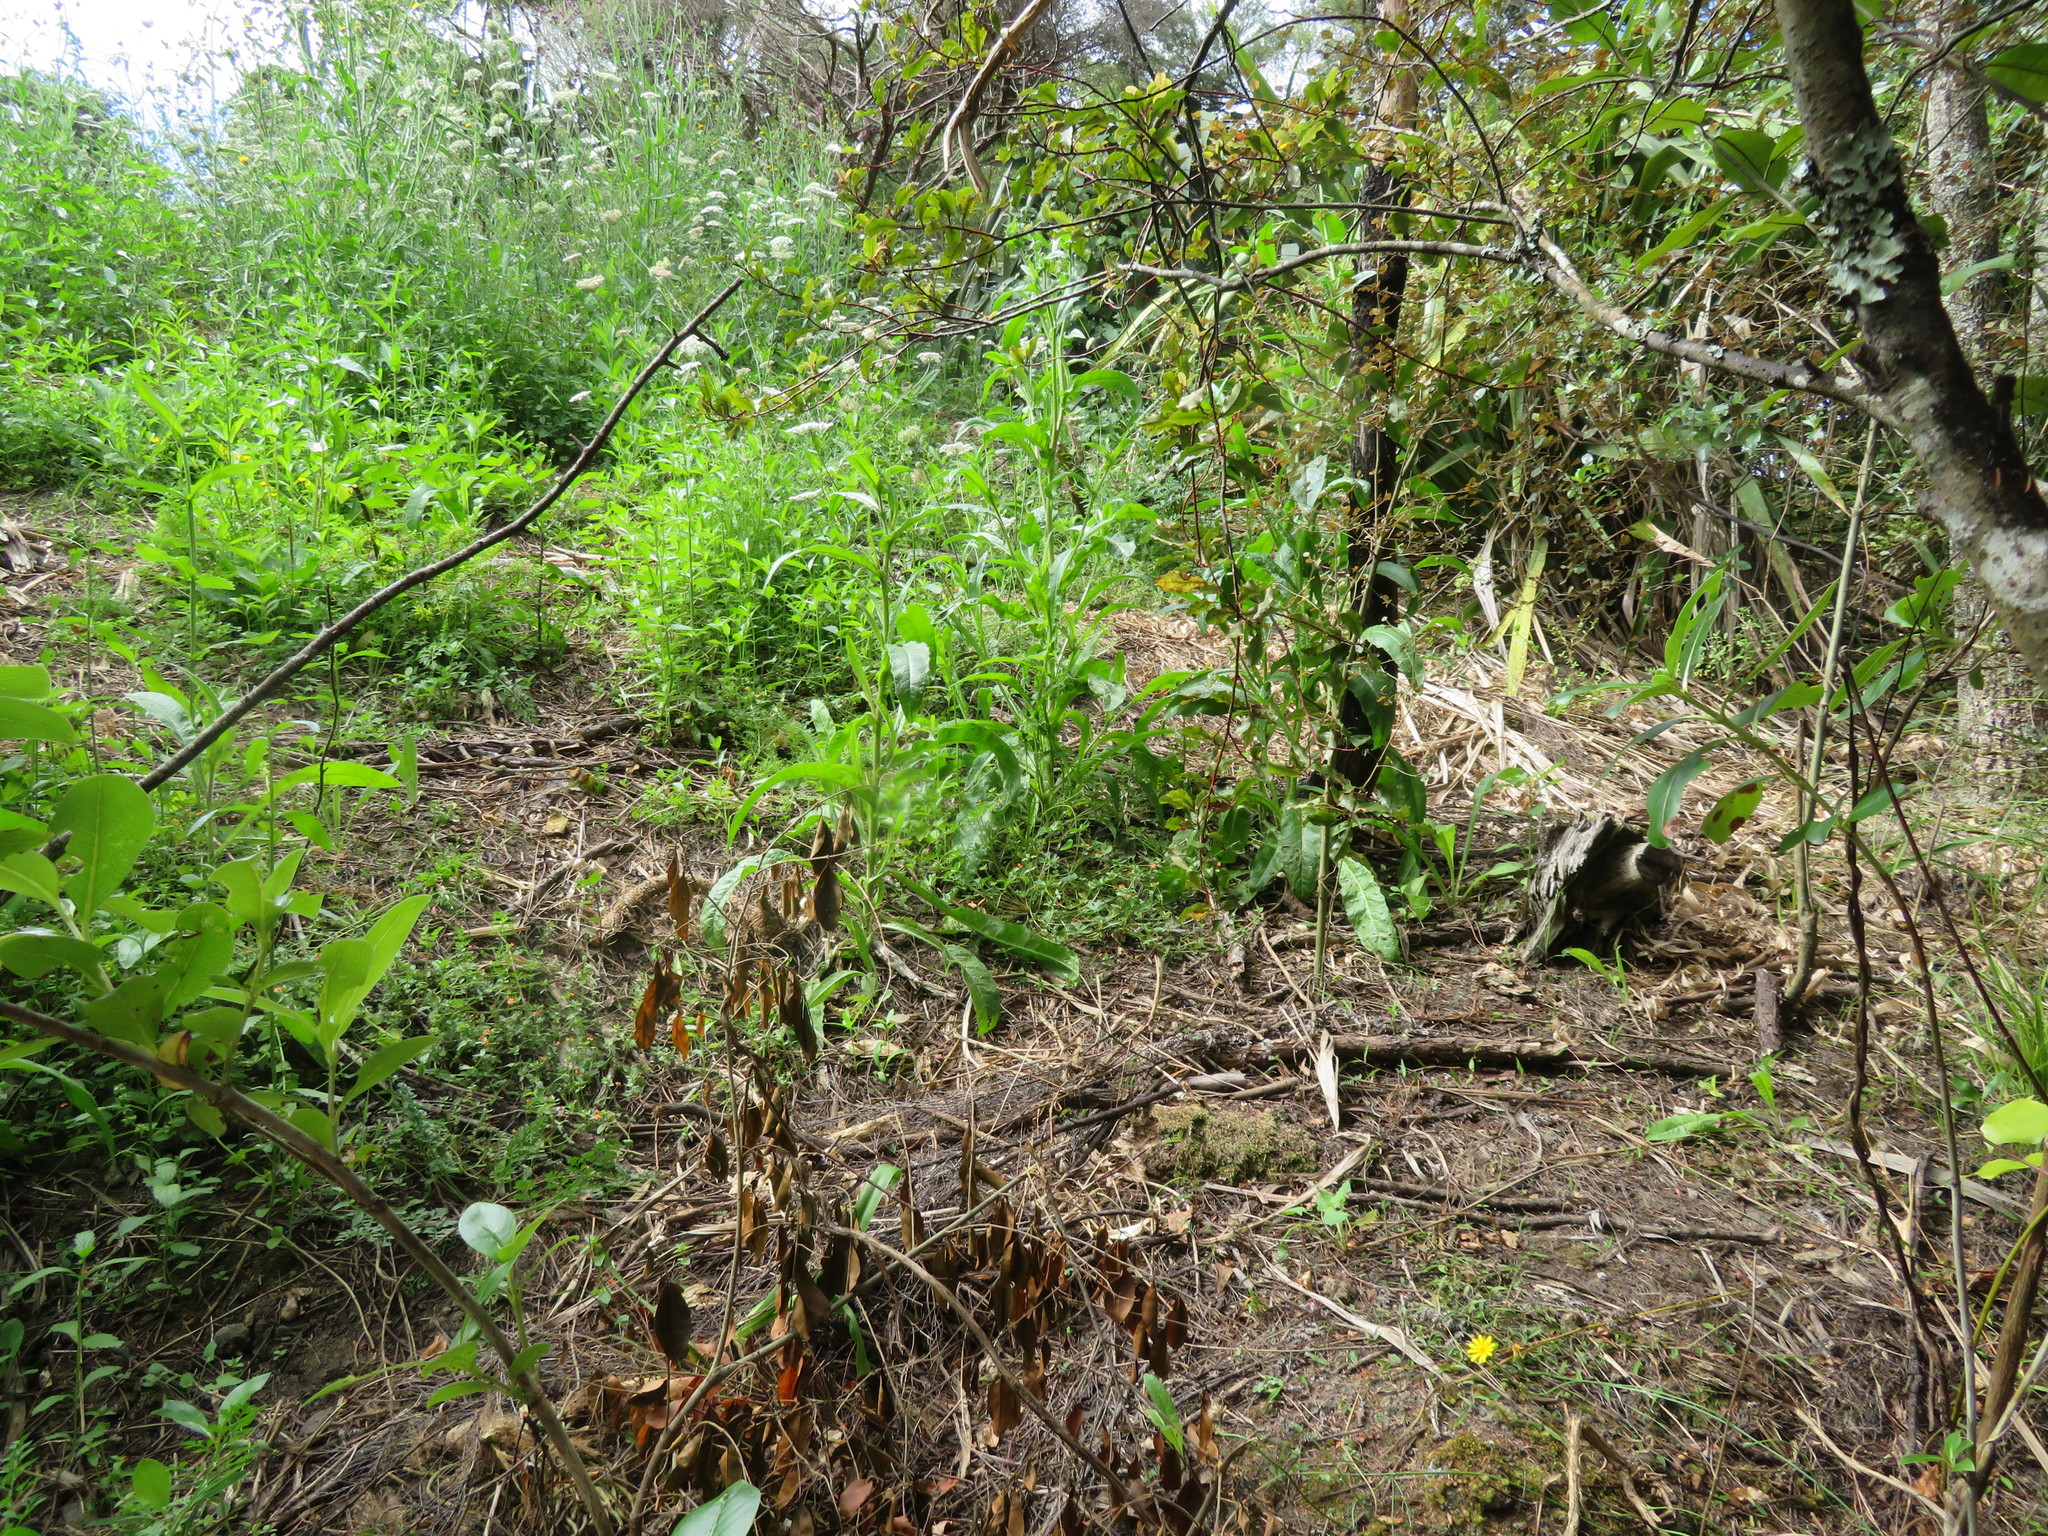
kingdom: Plantae
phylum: Tracheophyta
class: Magnoliopsida
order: Asterales
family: Asteraceae
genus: Helminthotheca
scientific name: Helminthotheca echioides
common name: Ox-tongue
